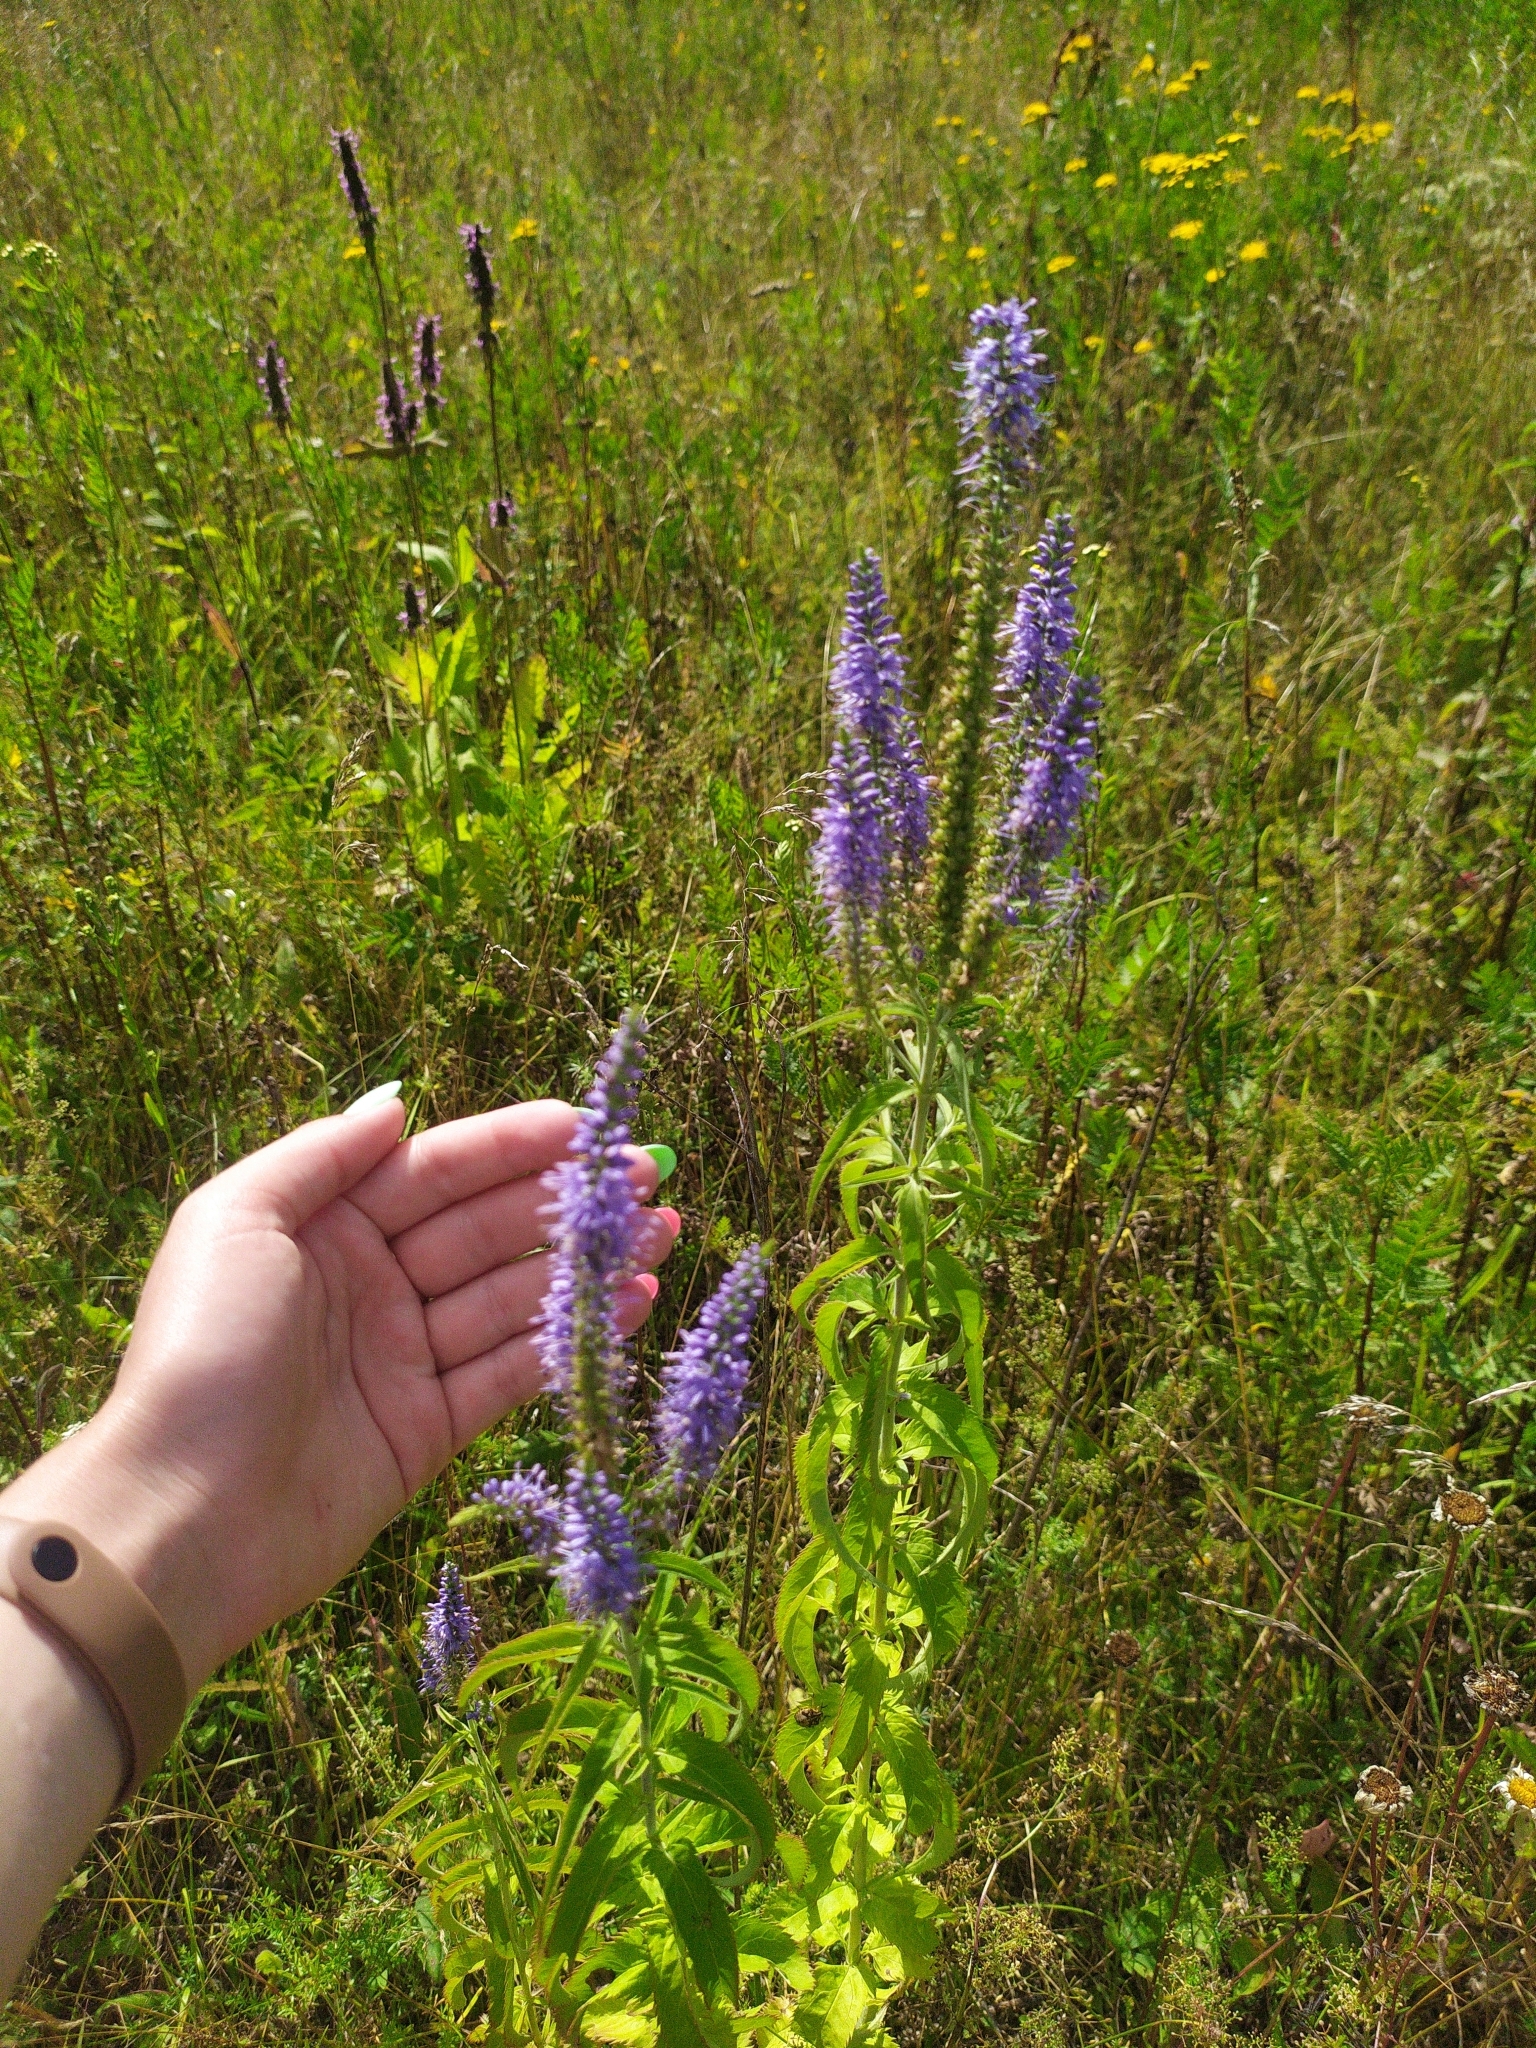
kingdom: Plantae
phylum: Tracheophyta
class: Magnoliopsida
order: Lamiales
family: Plantaginaceae
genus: Veronica
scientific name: Veronica longifolia
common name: Garden speedwell
